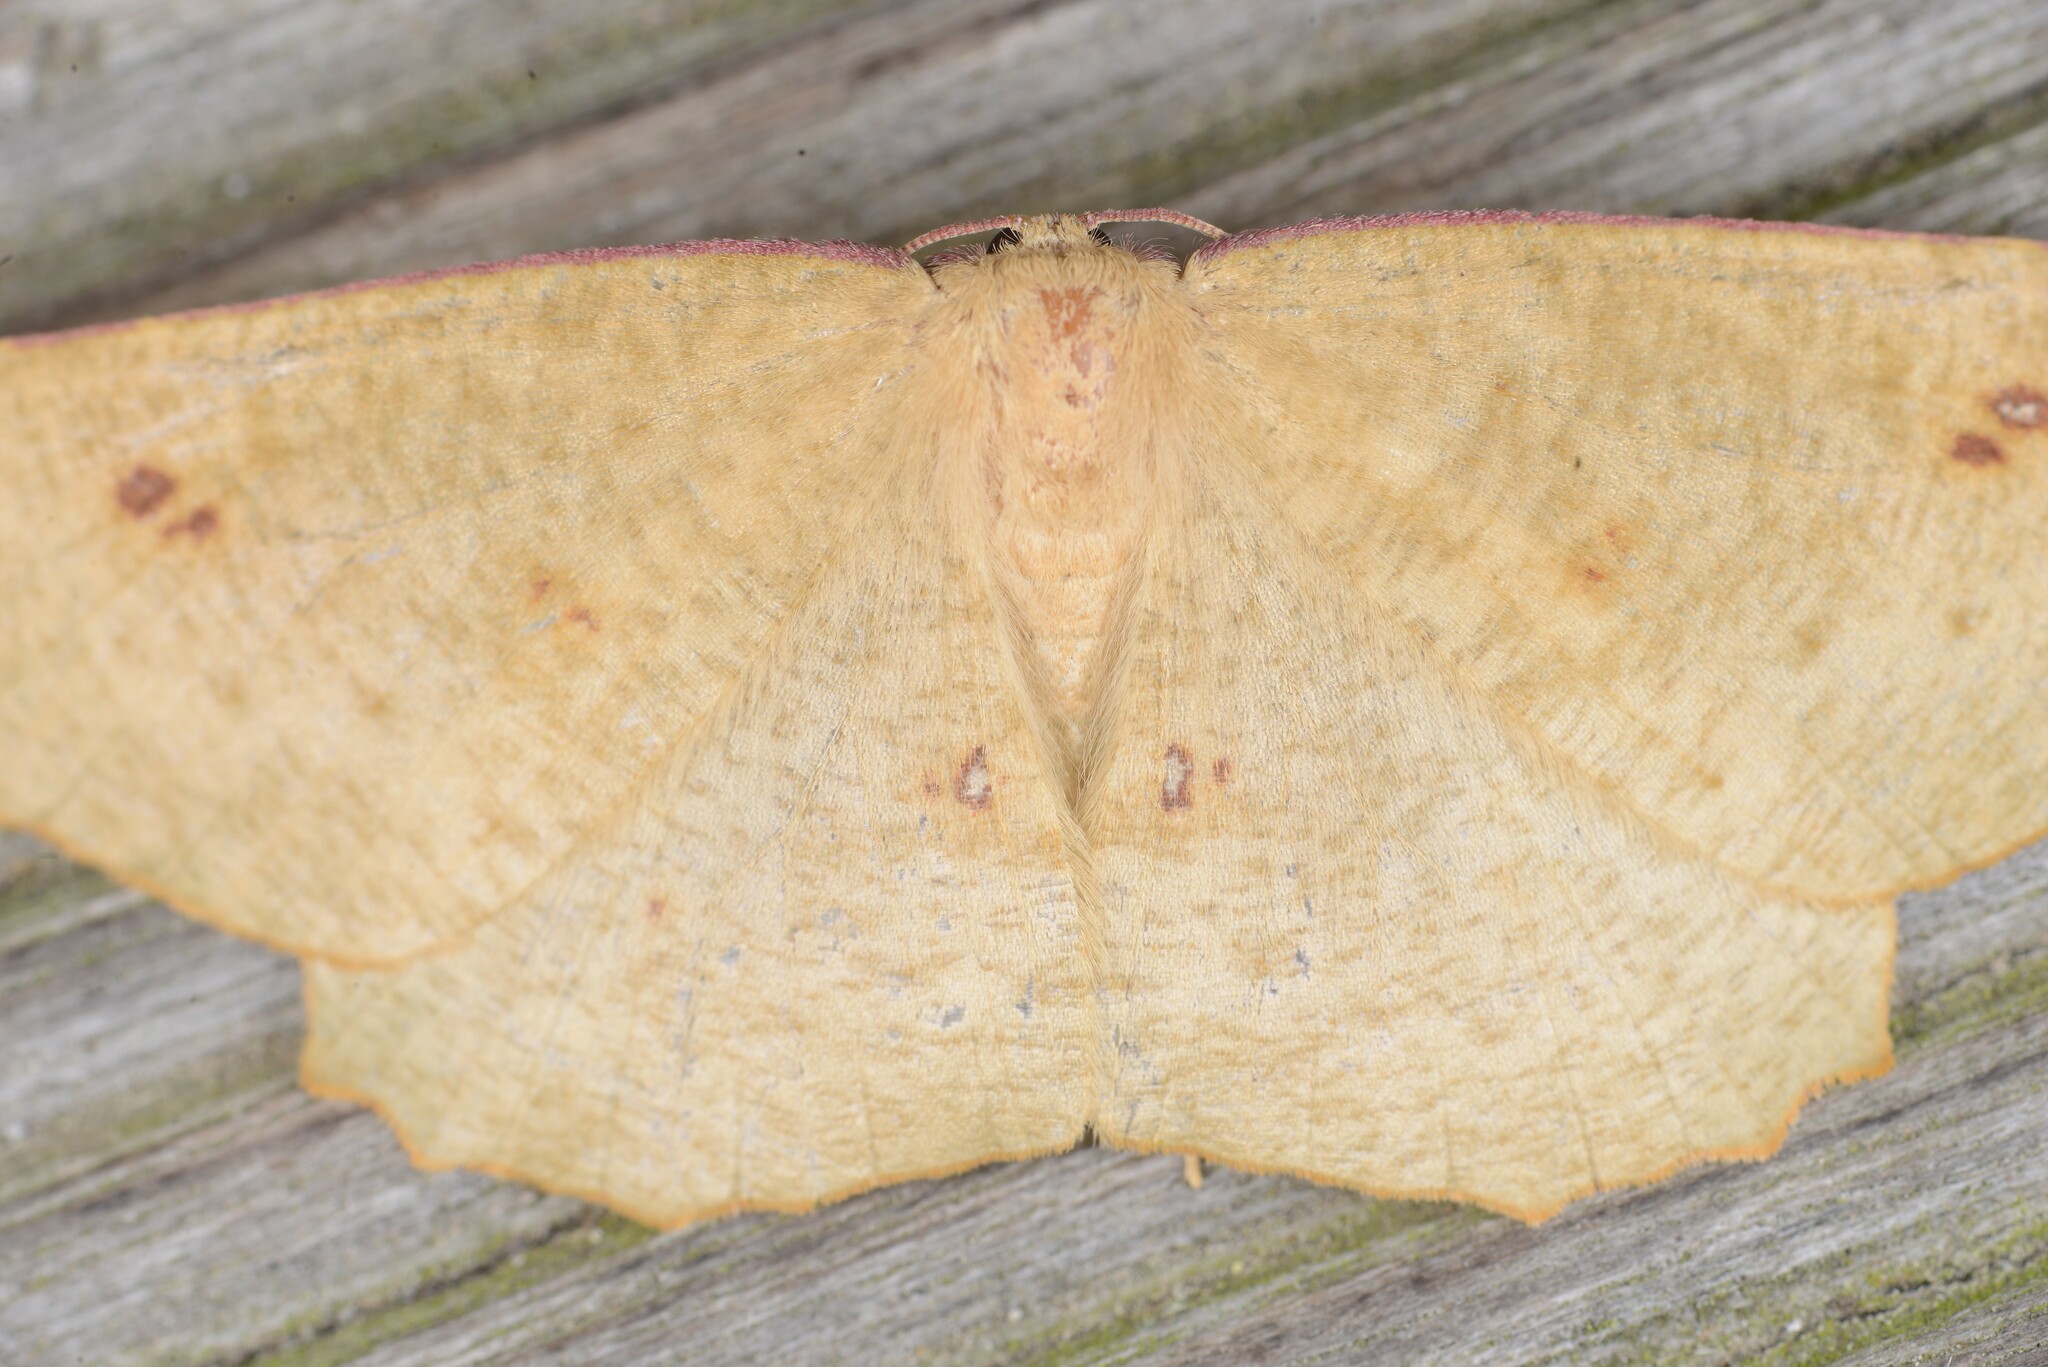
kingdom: Animalia
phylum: Arthropoda
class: Insecta
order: Lepidoptera
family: Geometridae
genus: Xyridacma
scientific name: Xyridacma alectoraria
